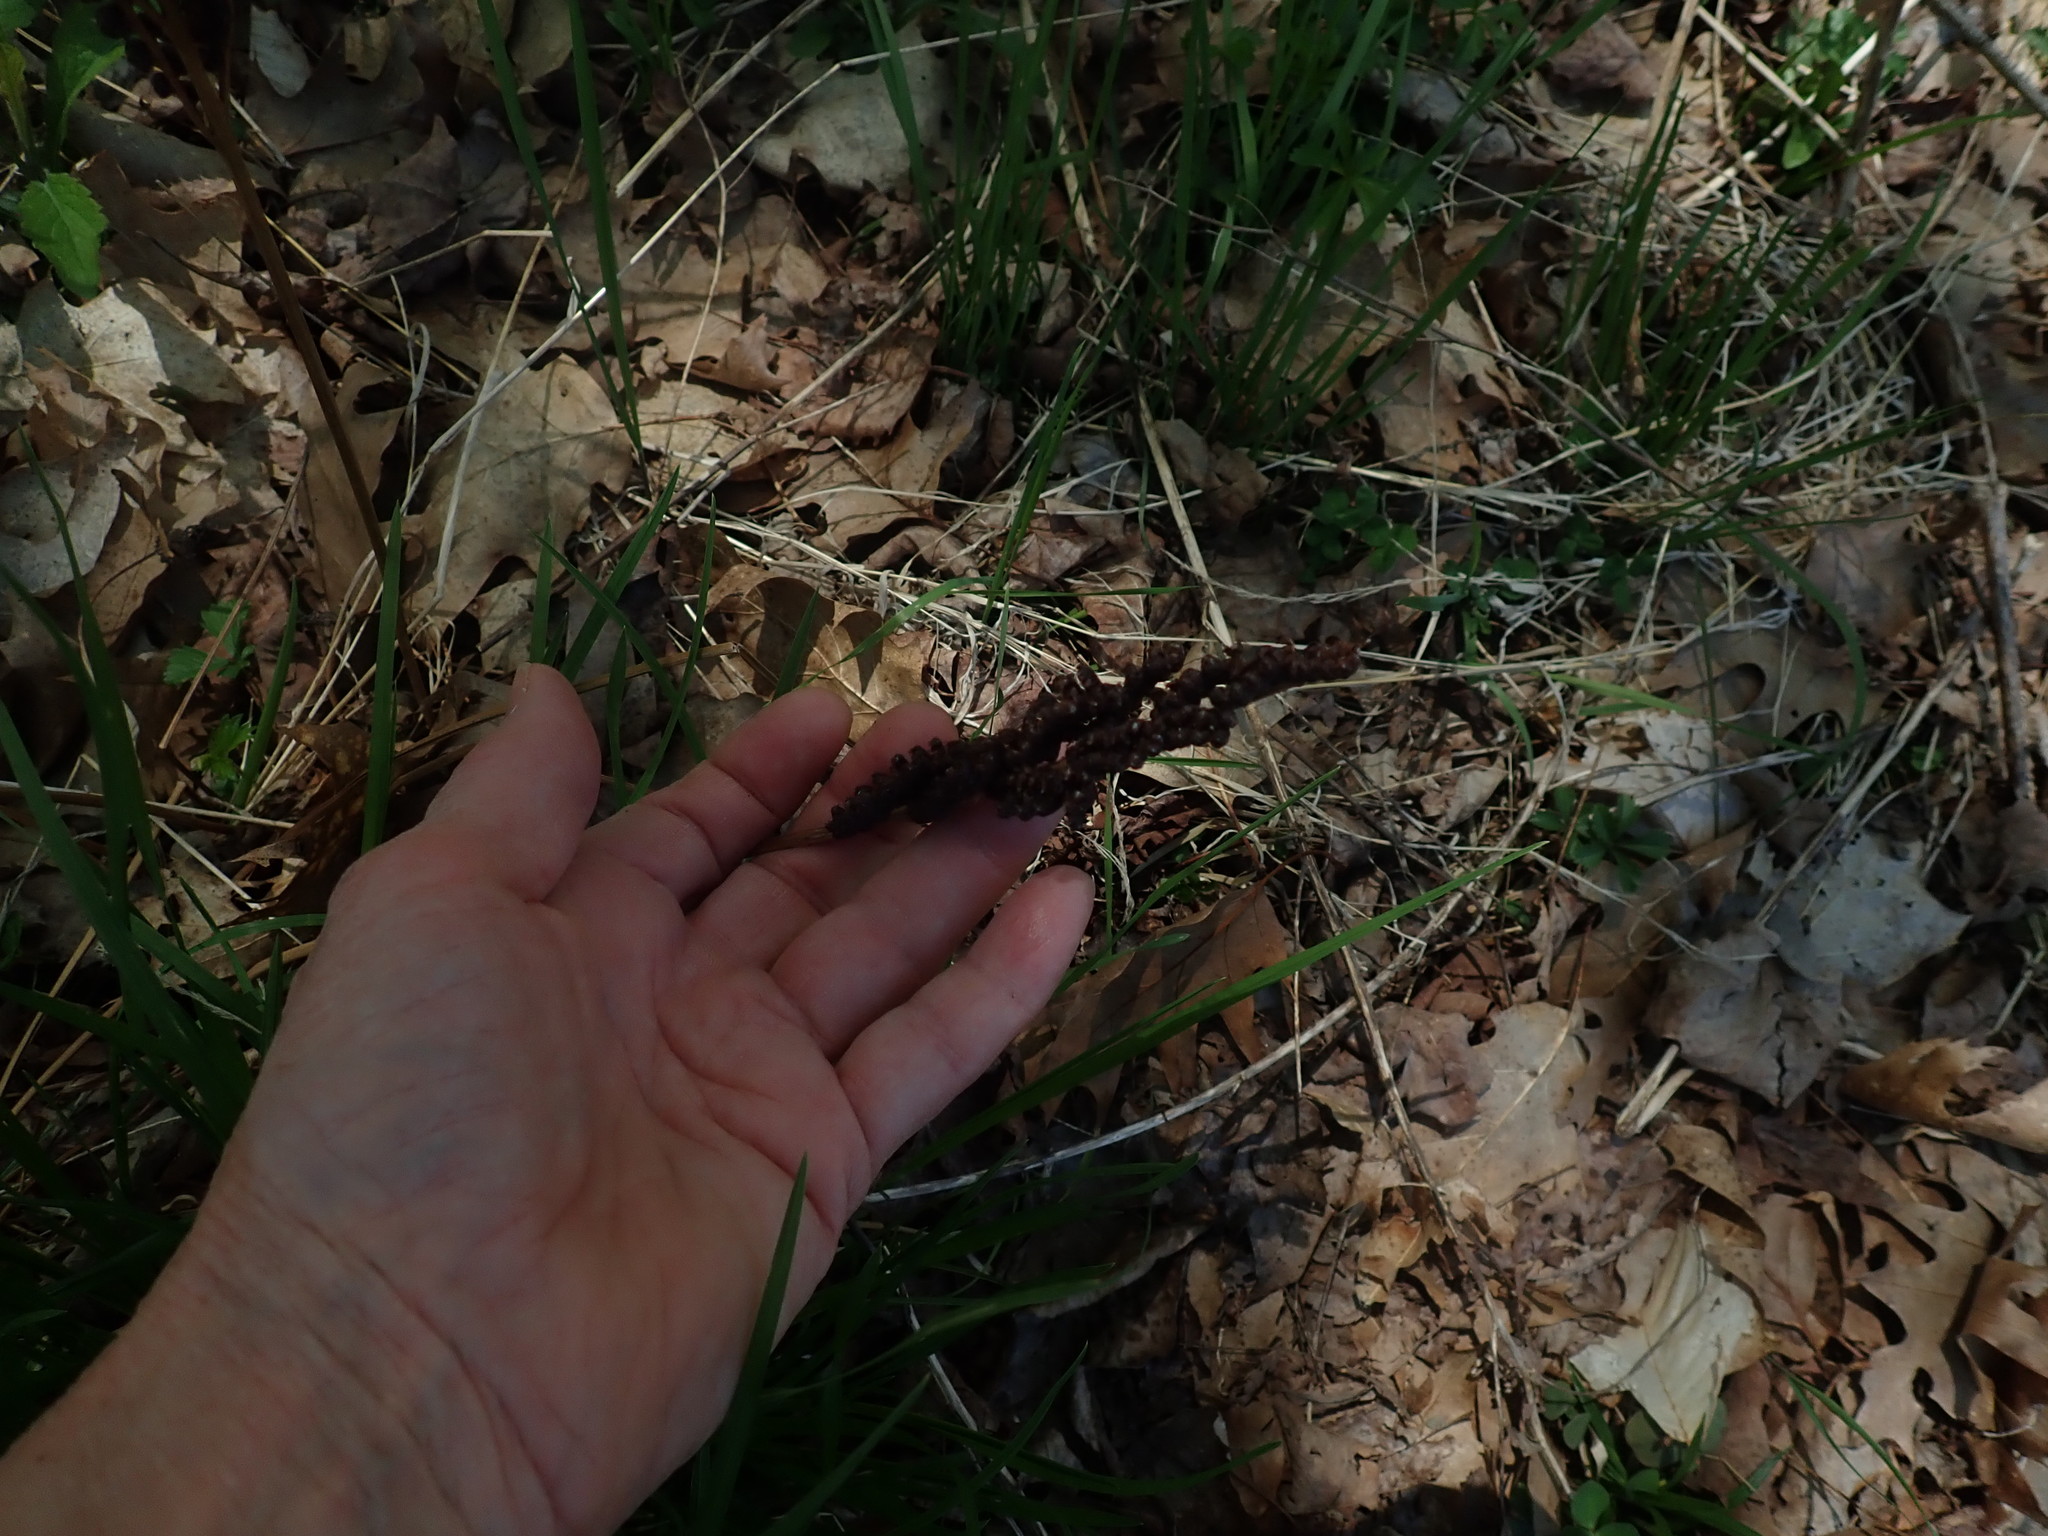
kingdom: Plantae
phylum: Tracheophyta
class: Polypodiopsida
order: Polypodiales
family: Onocleaceae
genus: Onoclea
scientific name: Onoclea sensibilis
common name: Sensitive fern
